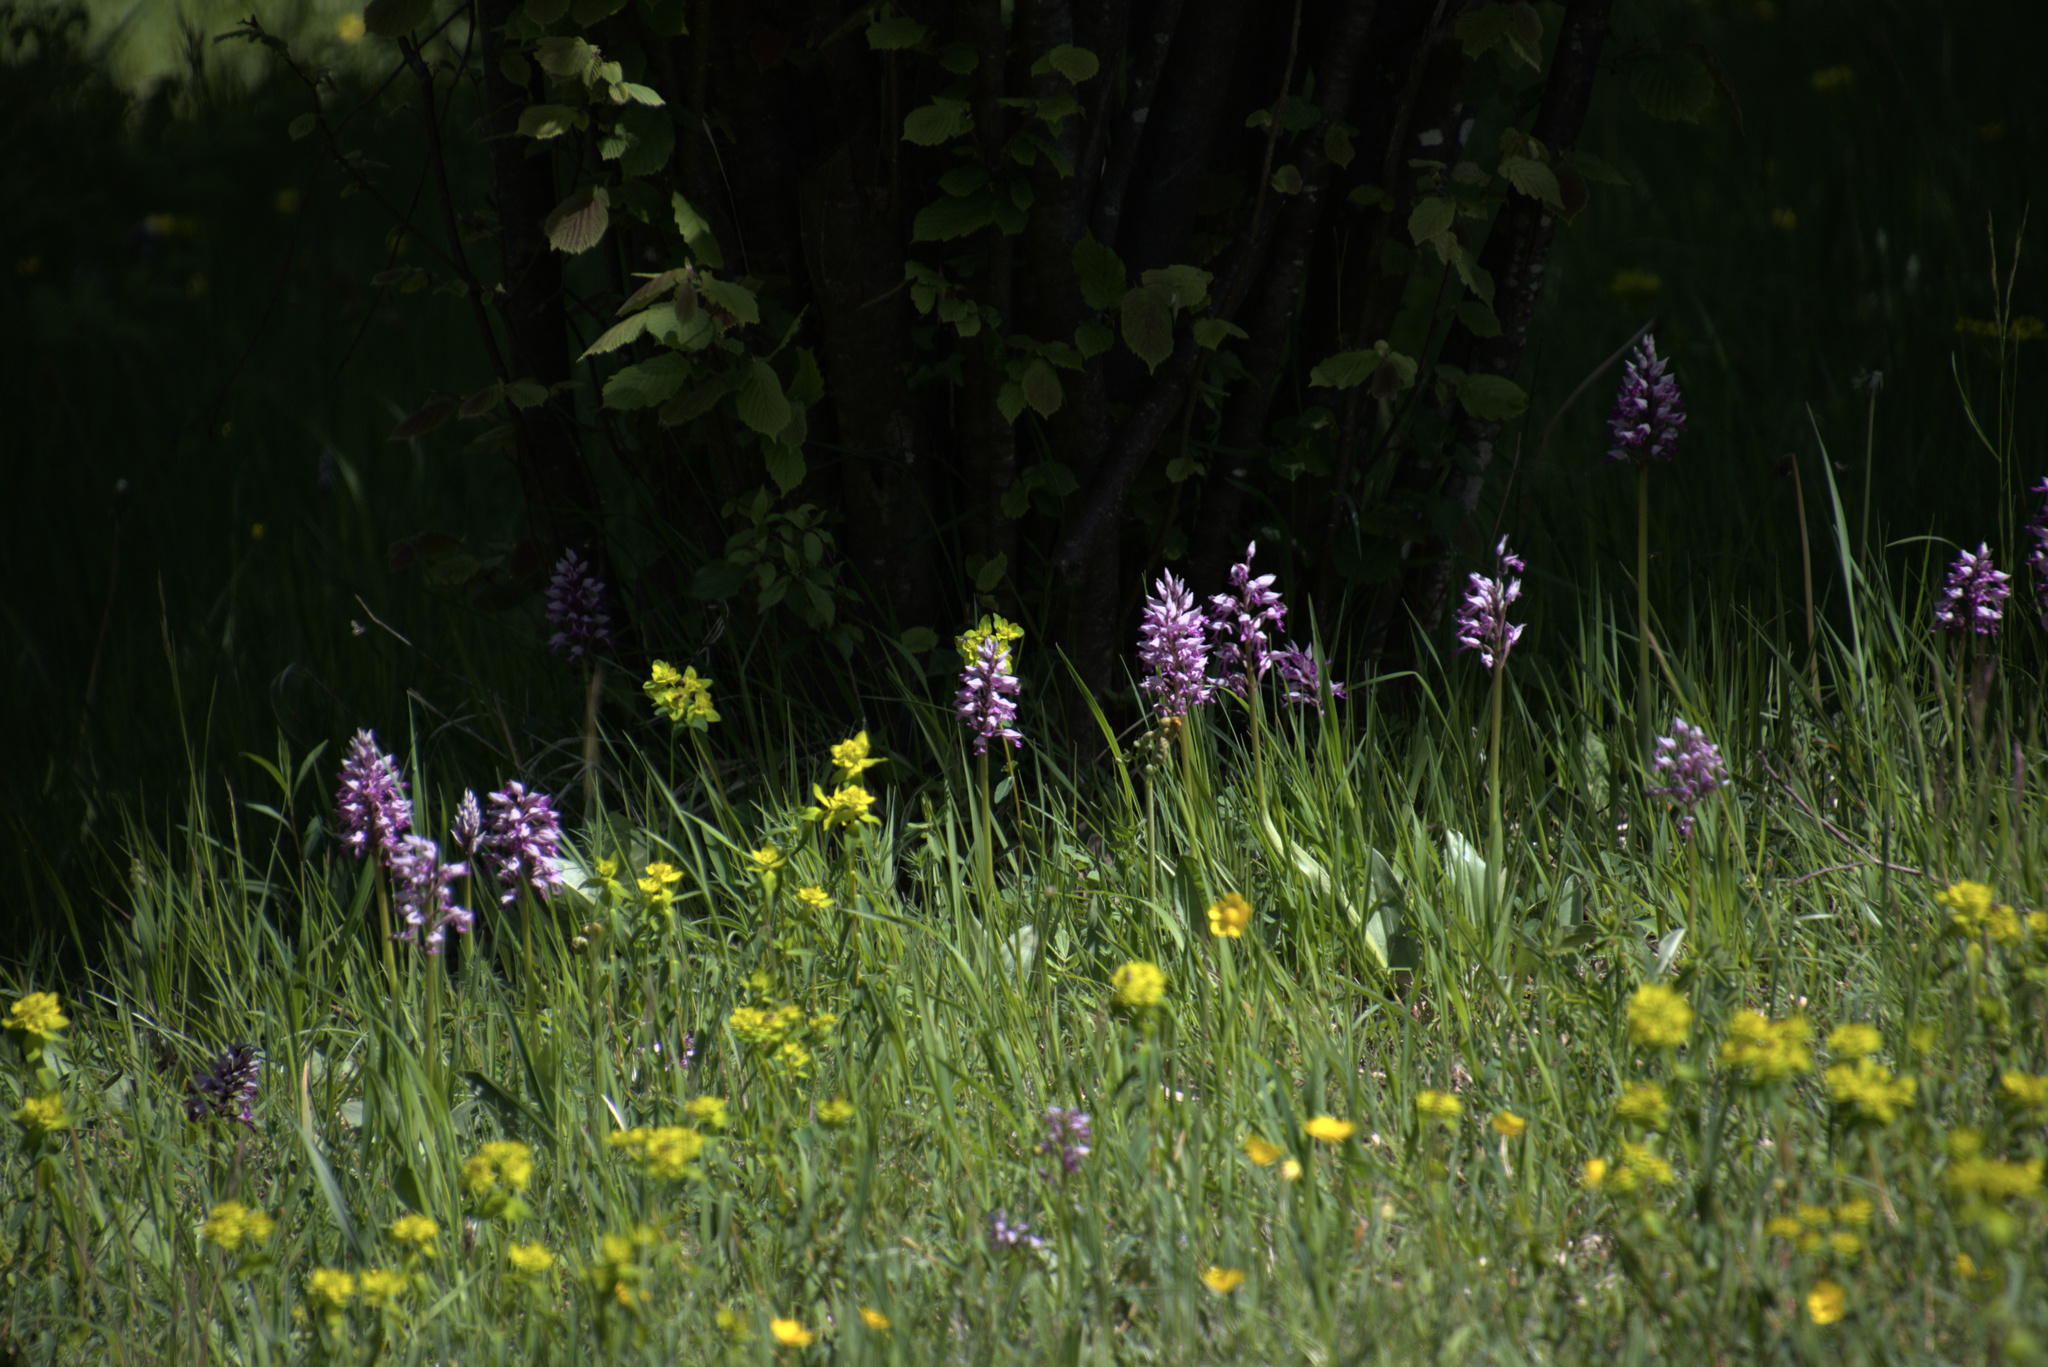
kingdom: Plantae
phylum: Tracheophyta
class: Liliopsida
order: Asparagales
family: Orchidaceae
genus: Orchis
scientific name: Orchis militaris
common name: Military orchid
